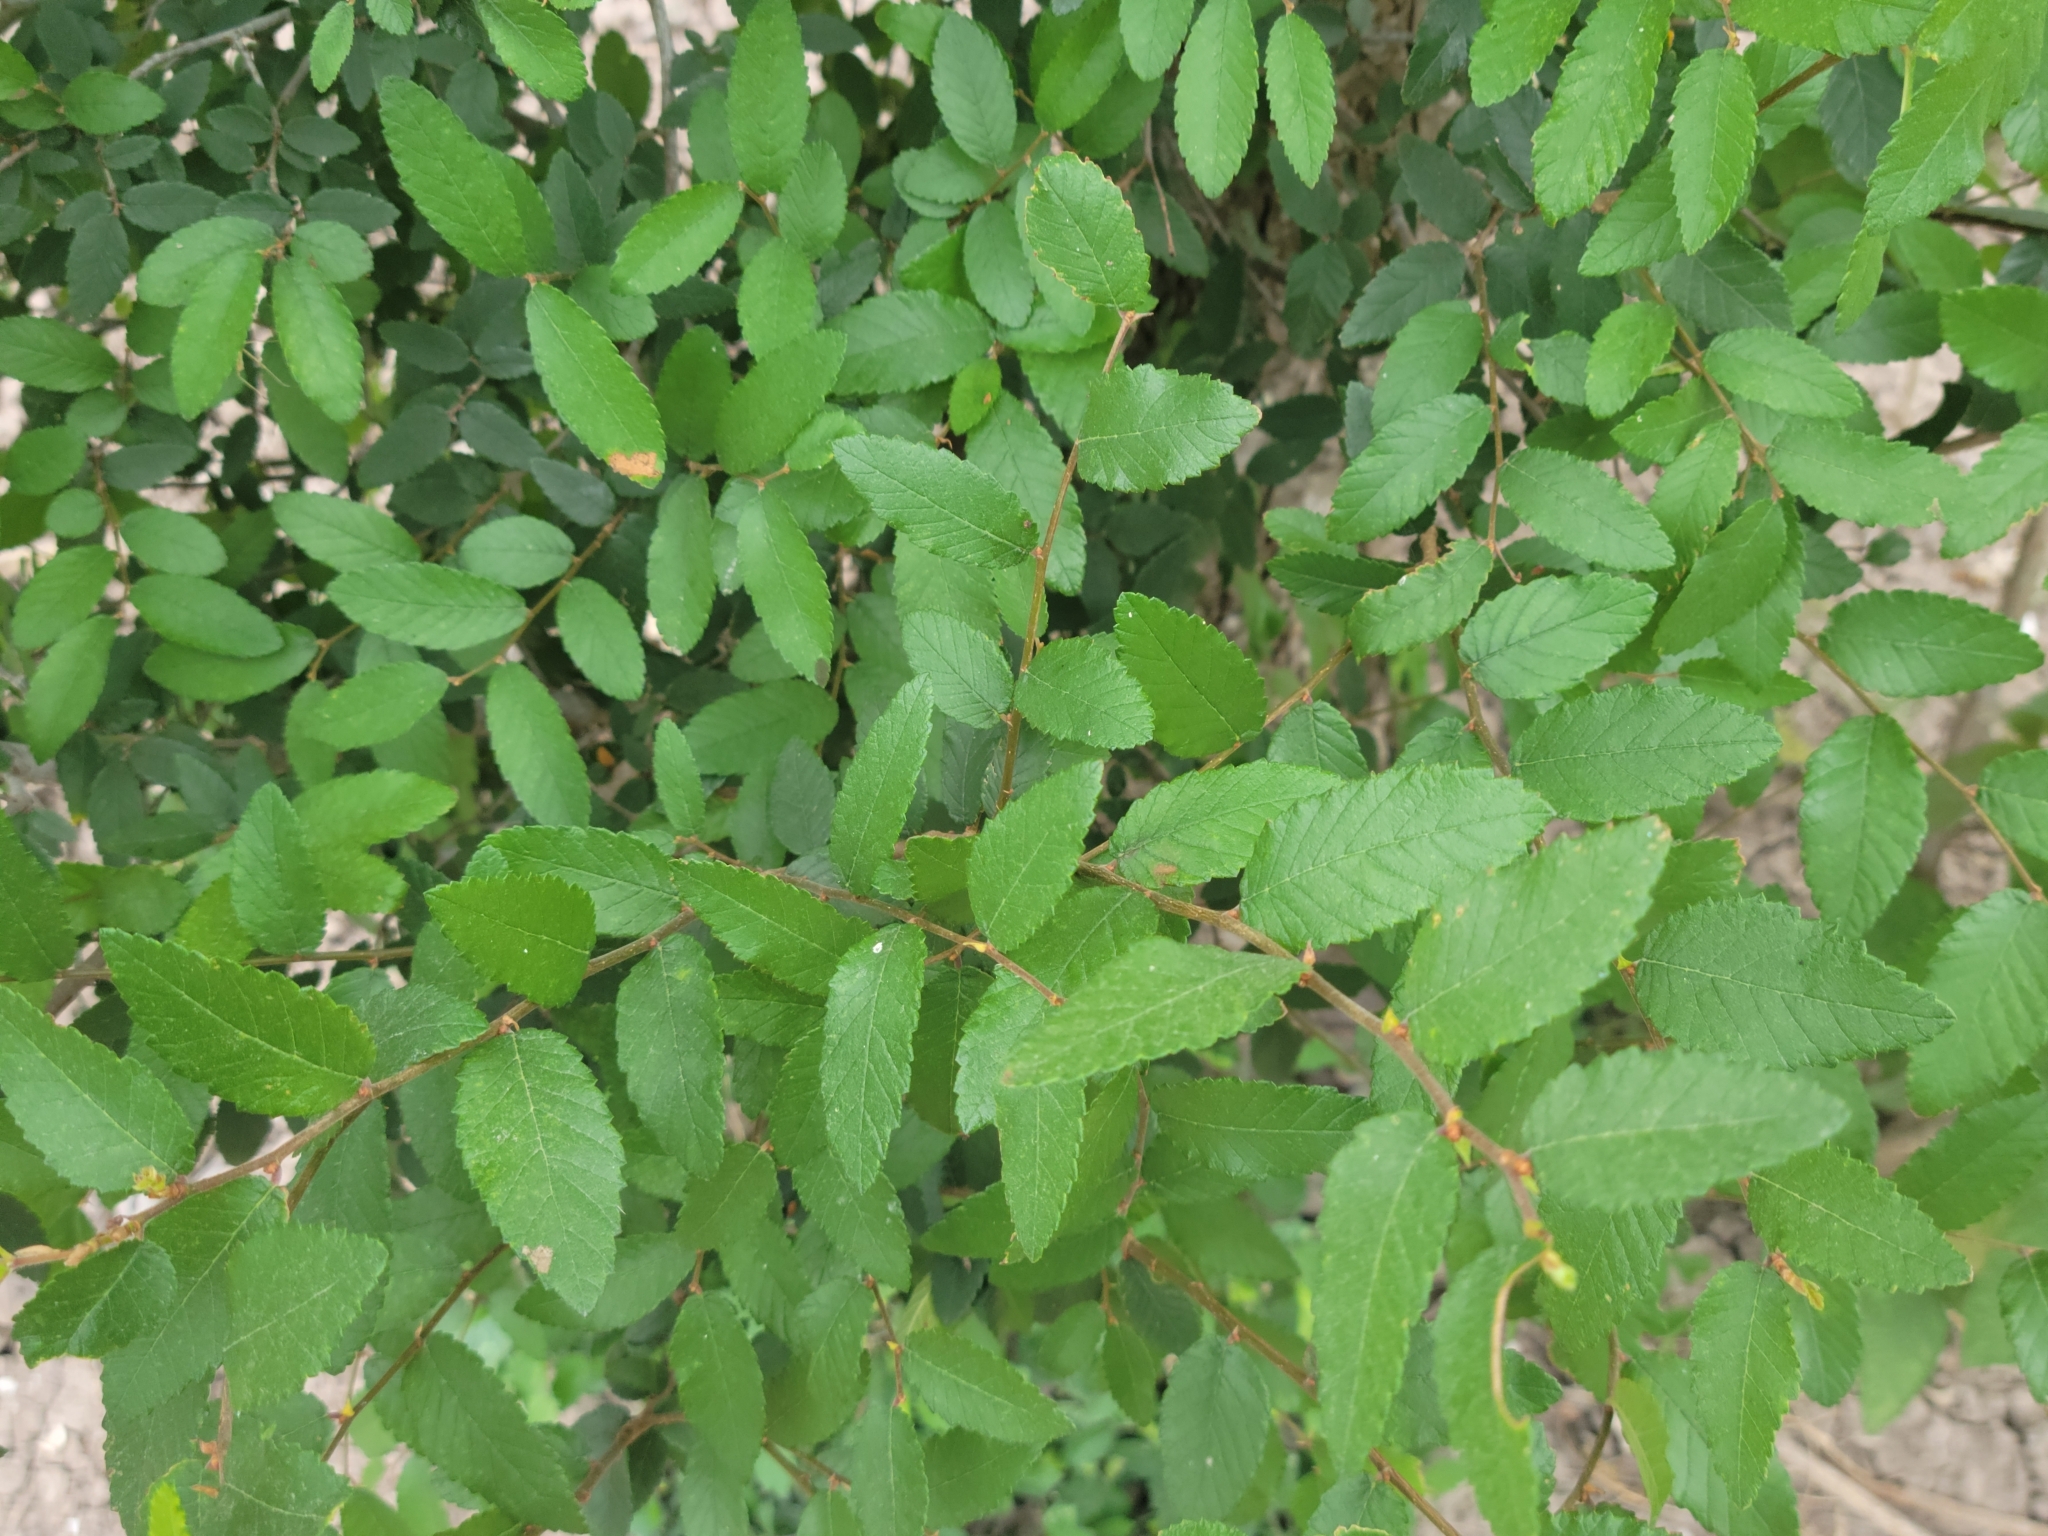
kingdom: Plantae
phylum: Tracheophyta
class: Magnoliopsida
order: Rosales
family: Ulmaceae
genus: Ulmus
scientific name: Ulmus crassifolia
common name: Basket elm
